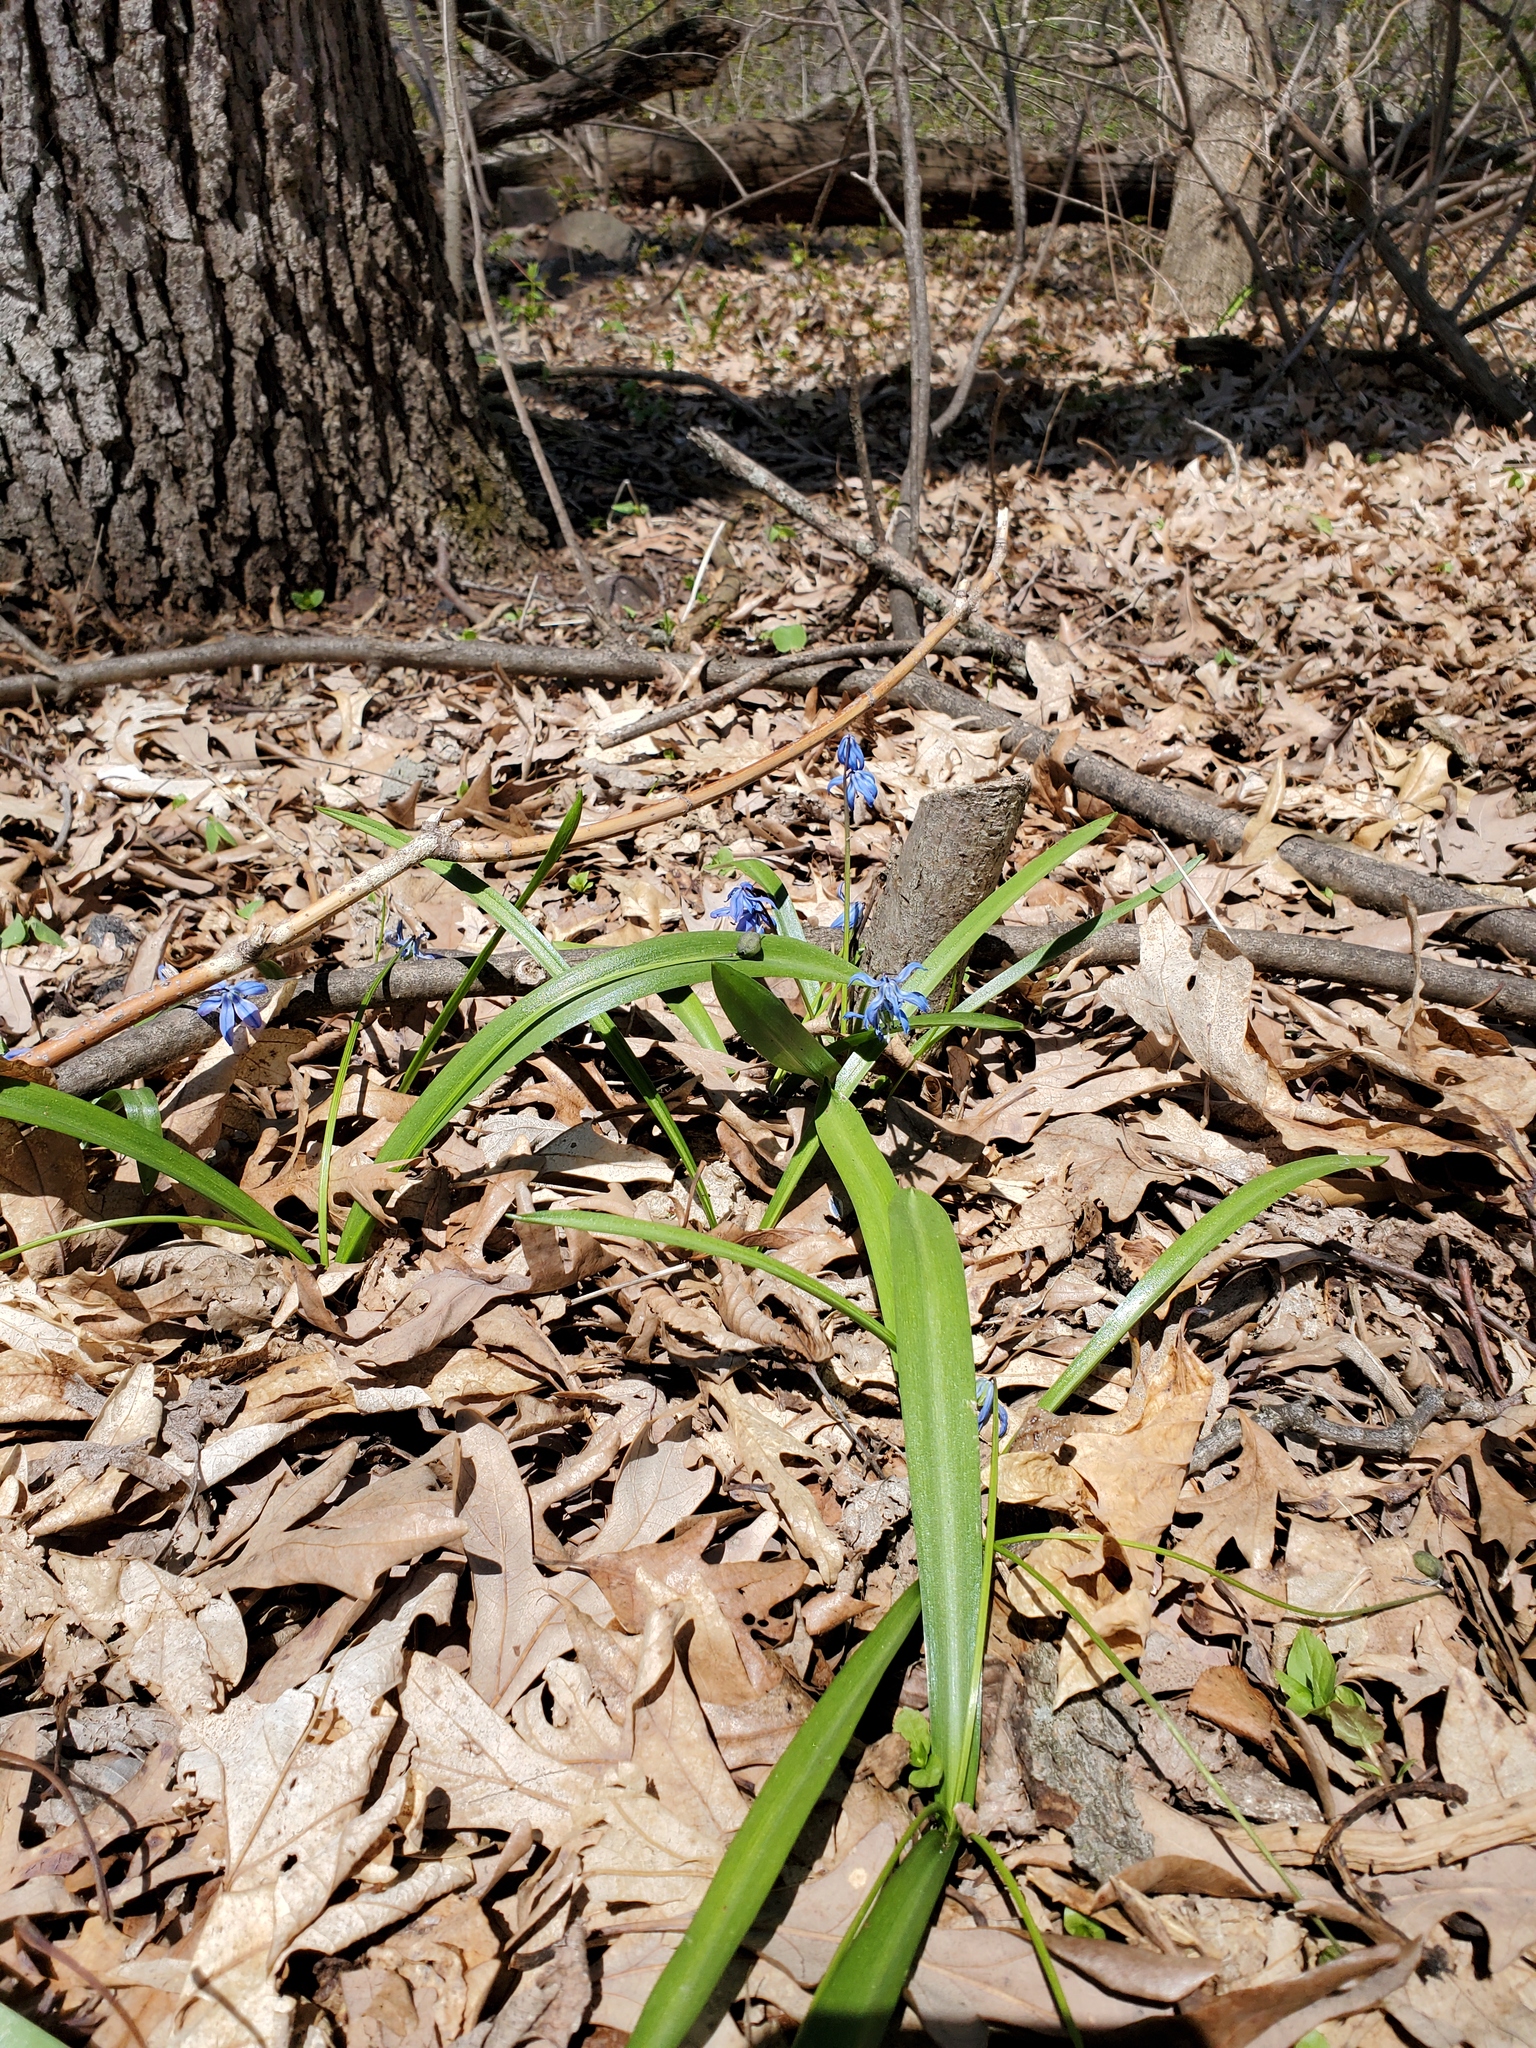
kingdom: Plantae
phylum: Tracheophyta
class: Liliopsida
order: Asparagales
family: Asparagaceae
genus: Scilla
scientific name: Scilla siberica
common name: Siberian squill
